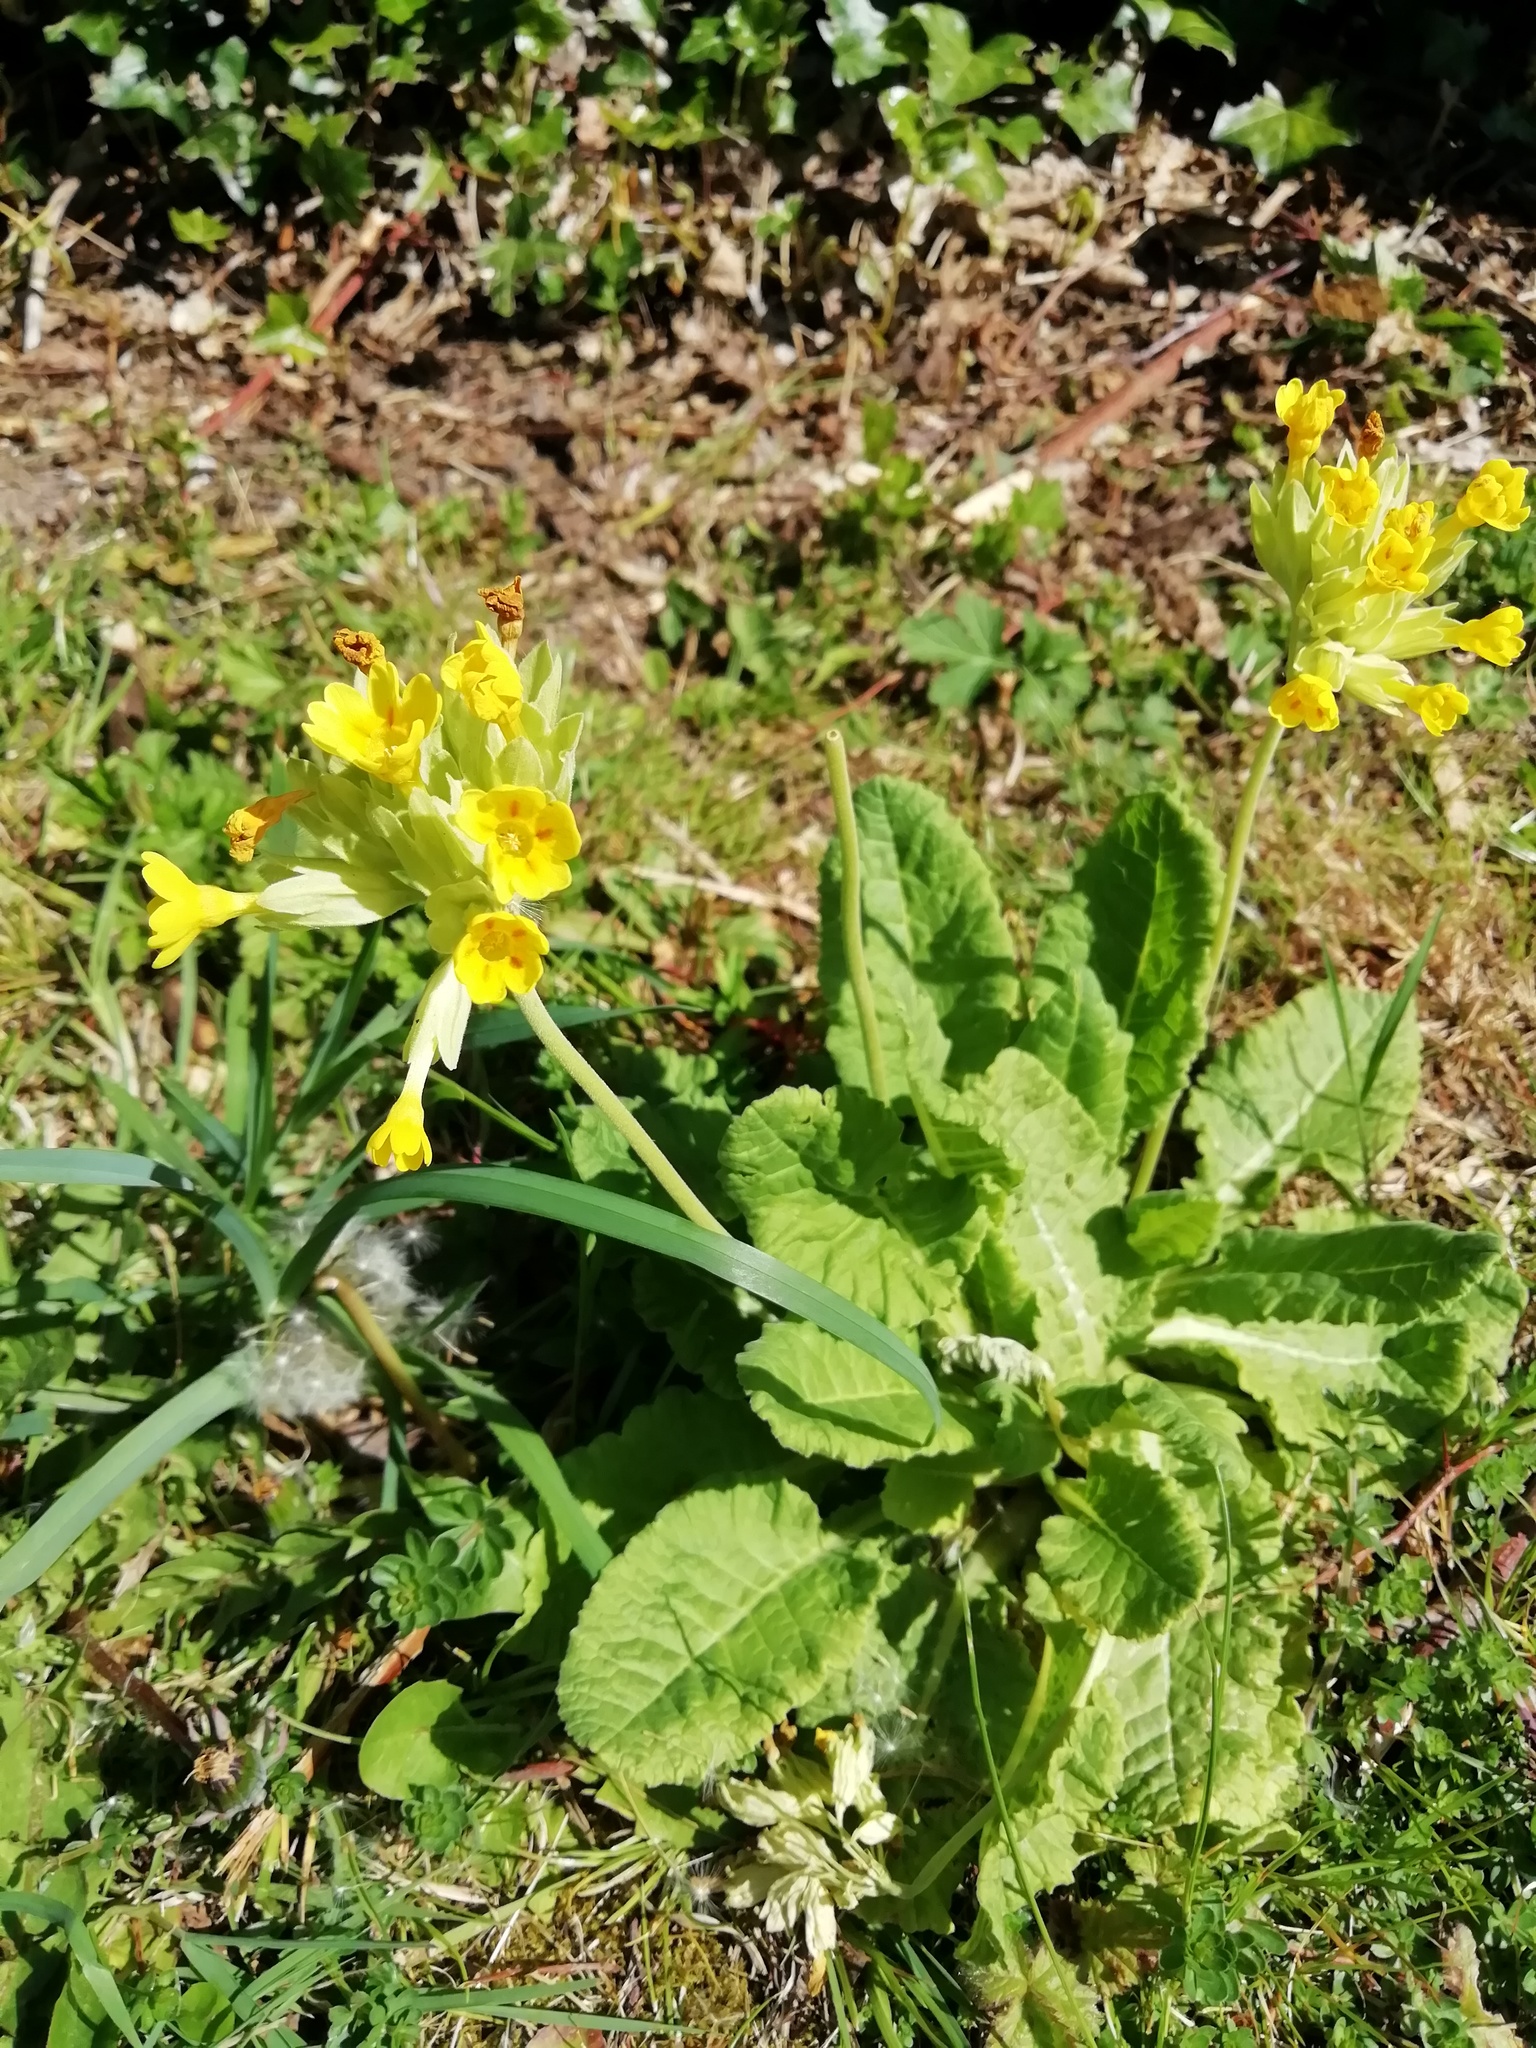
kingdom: Plantae
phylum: Tracheophyta
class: Magnoliopsida
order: Ericales
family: Primulaceae
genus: Primula
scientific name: Primula veris
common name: Cowslip
